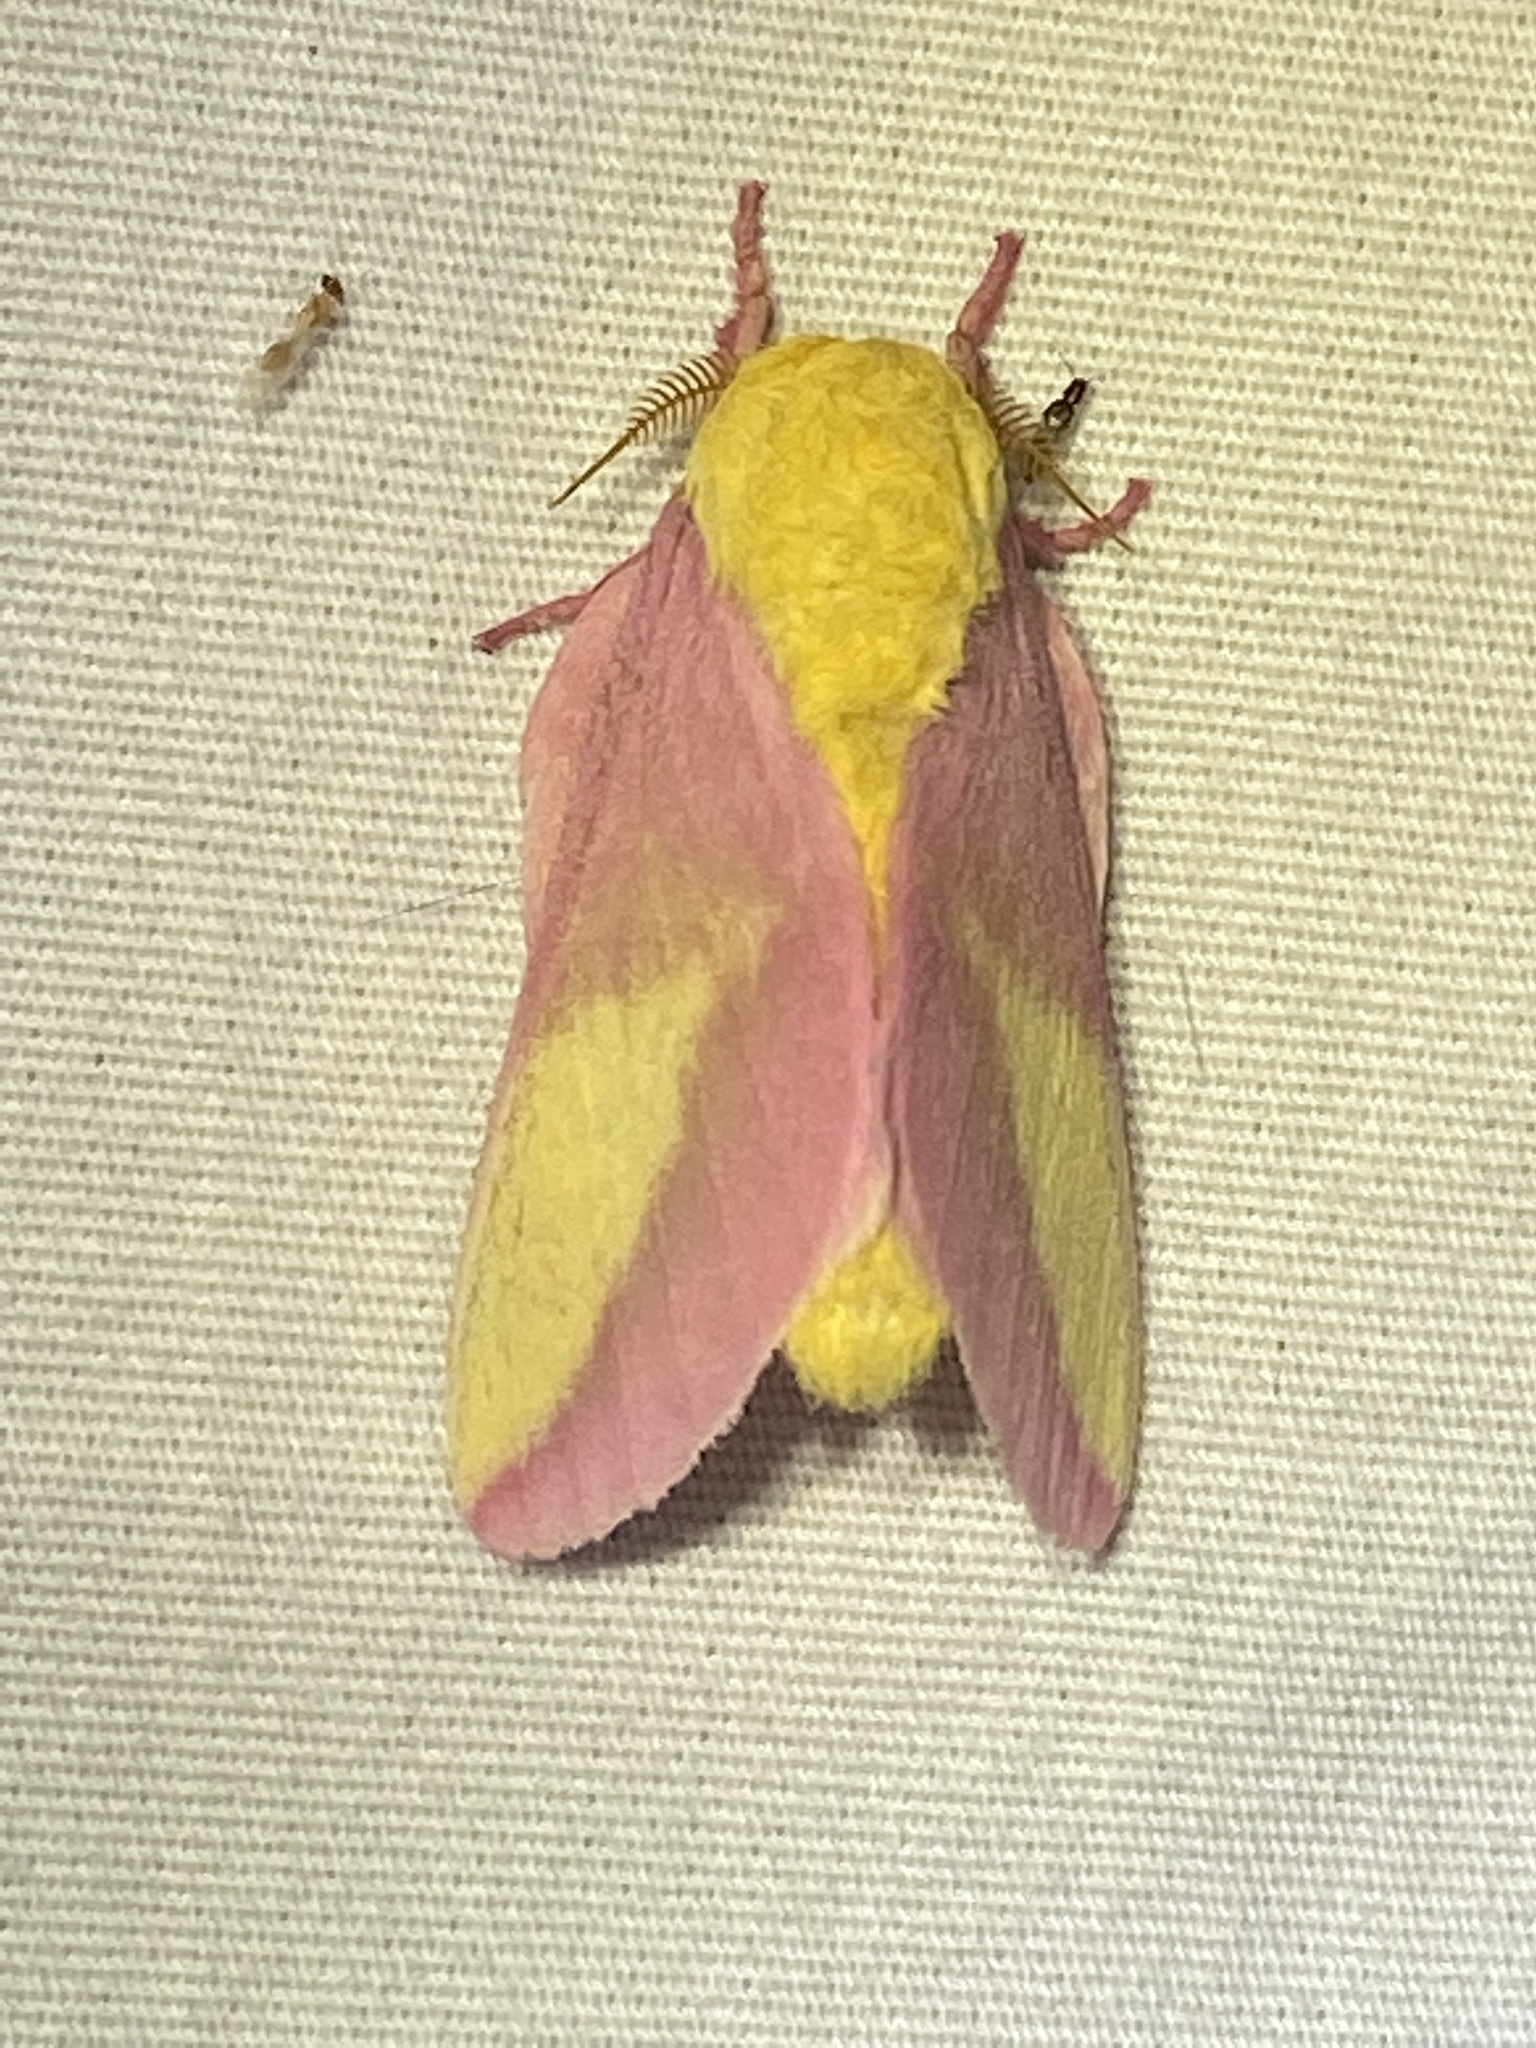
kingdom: Animalia
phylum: Arthropoda
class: Insecta
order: Lepidoptera
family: Saturniidae
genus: Dryocampa
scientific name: Dryocampa rubicunda
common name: Rosy maple moth
